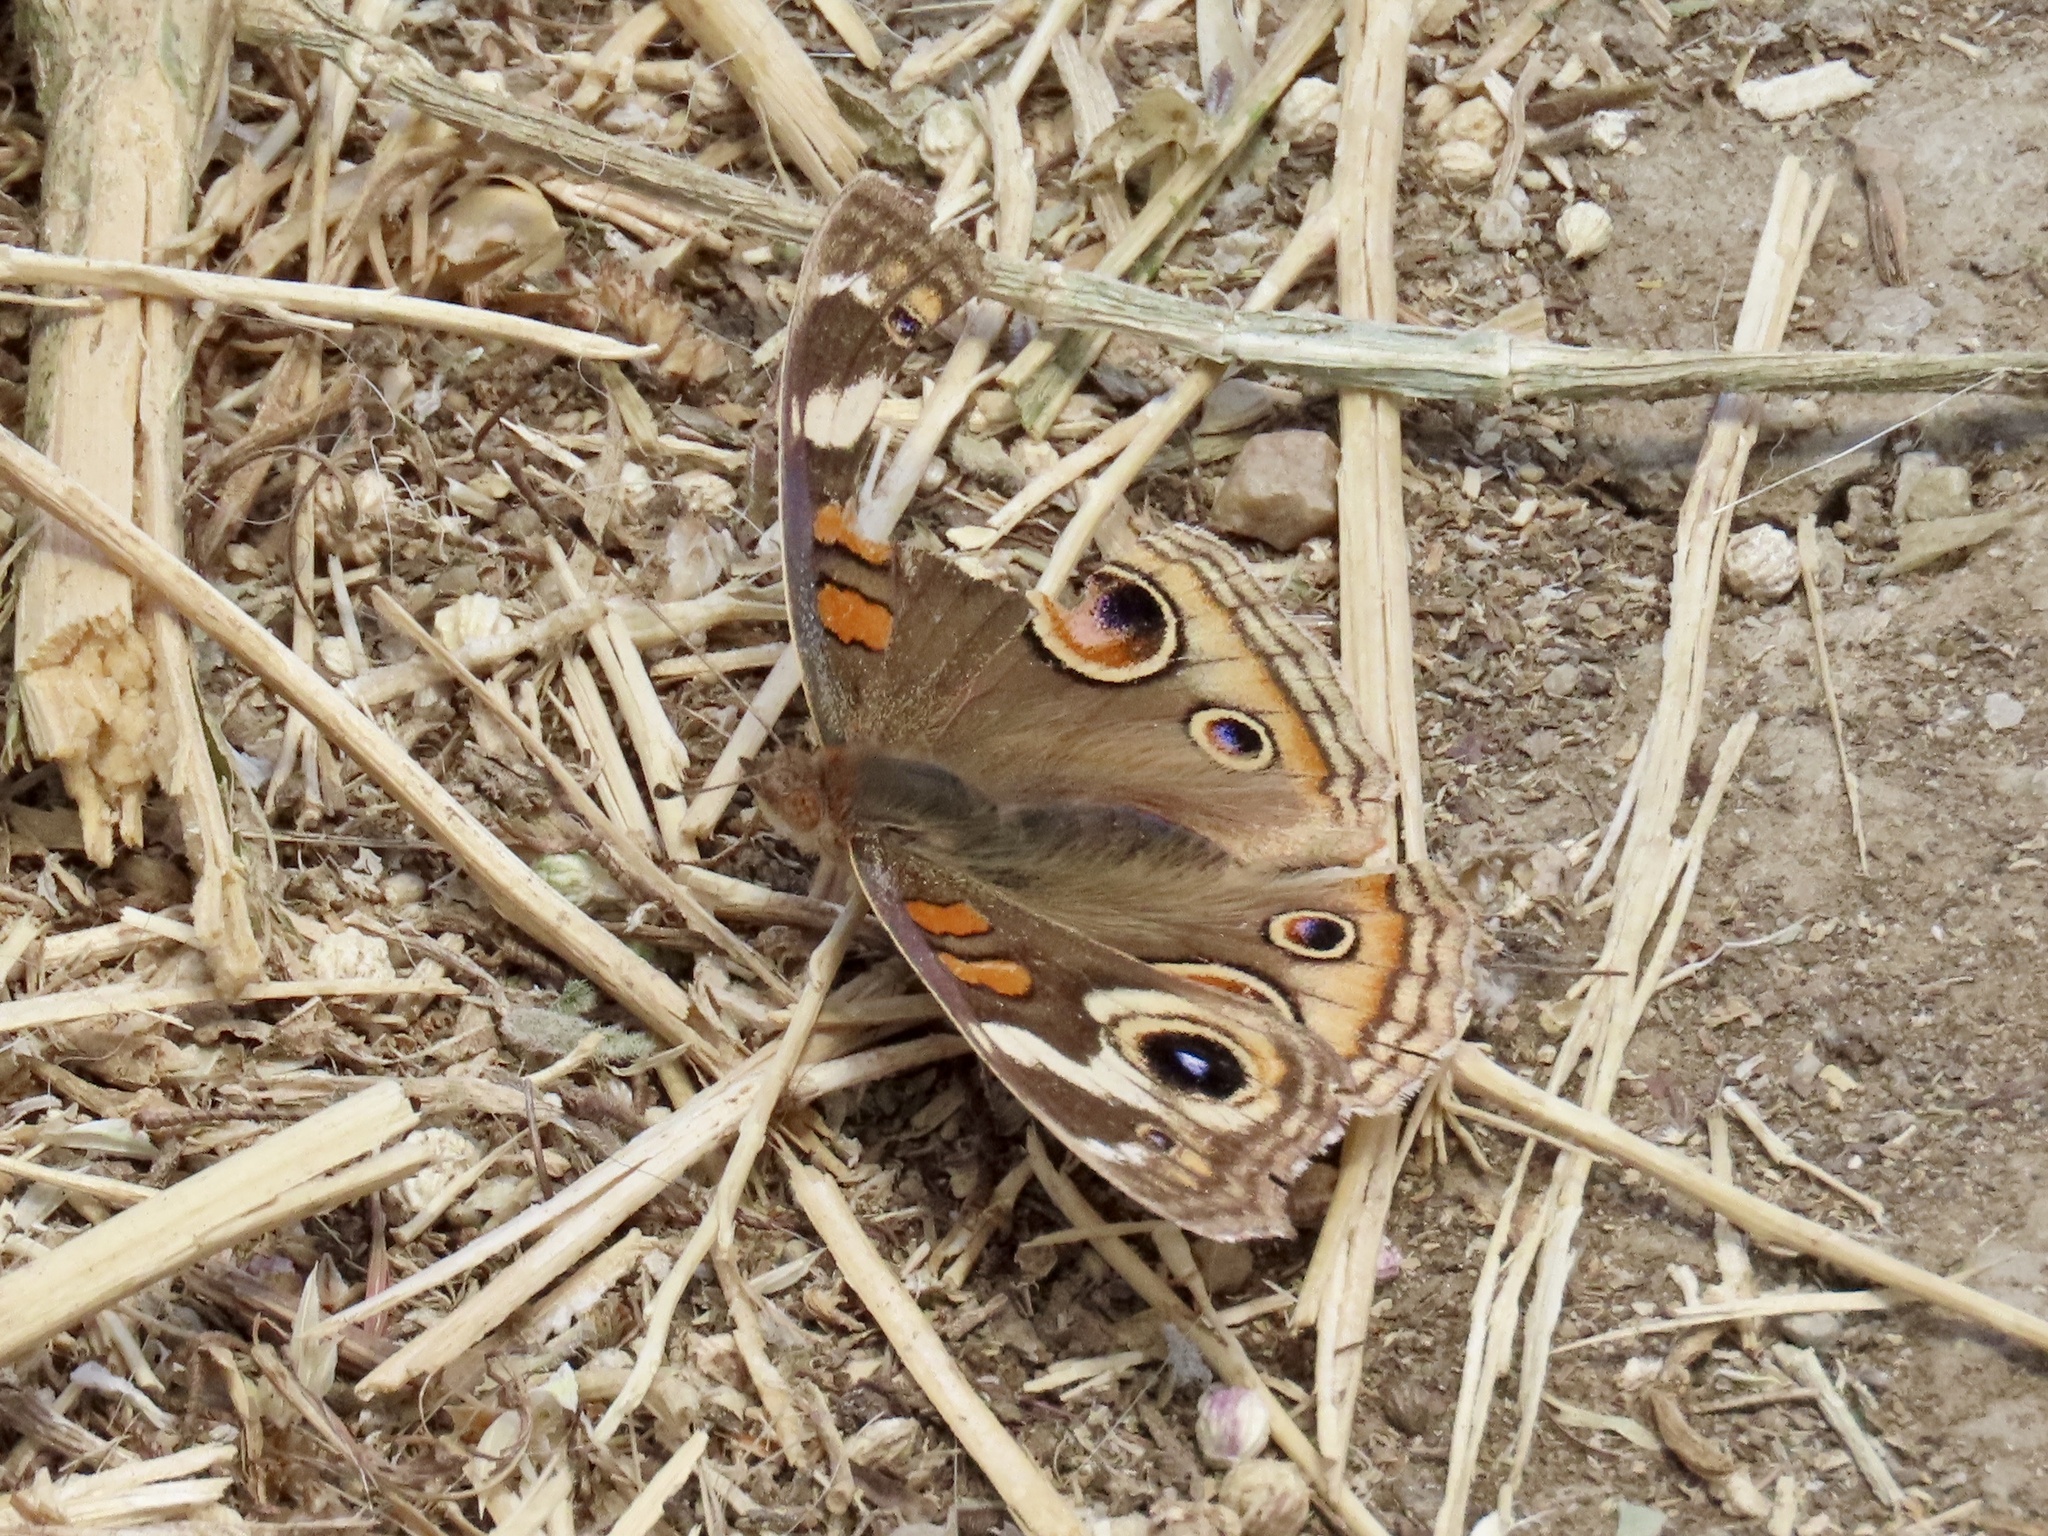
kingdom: Animalia
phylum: Arthropoda
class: Insecta
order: Lepidoptera
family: Nymphalidae
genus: Junonia
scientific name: Junonia grisea
